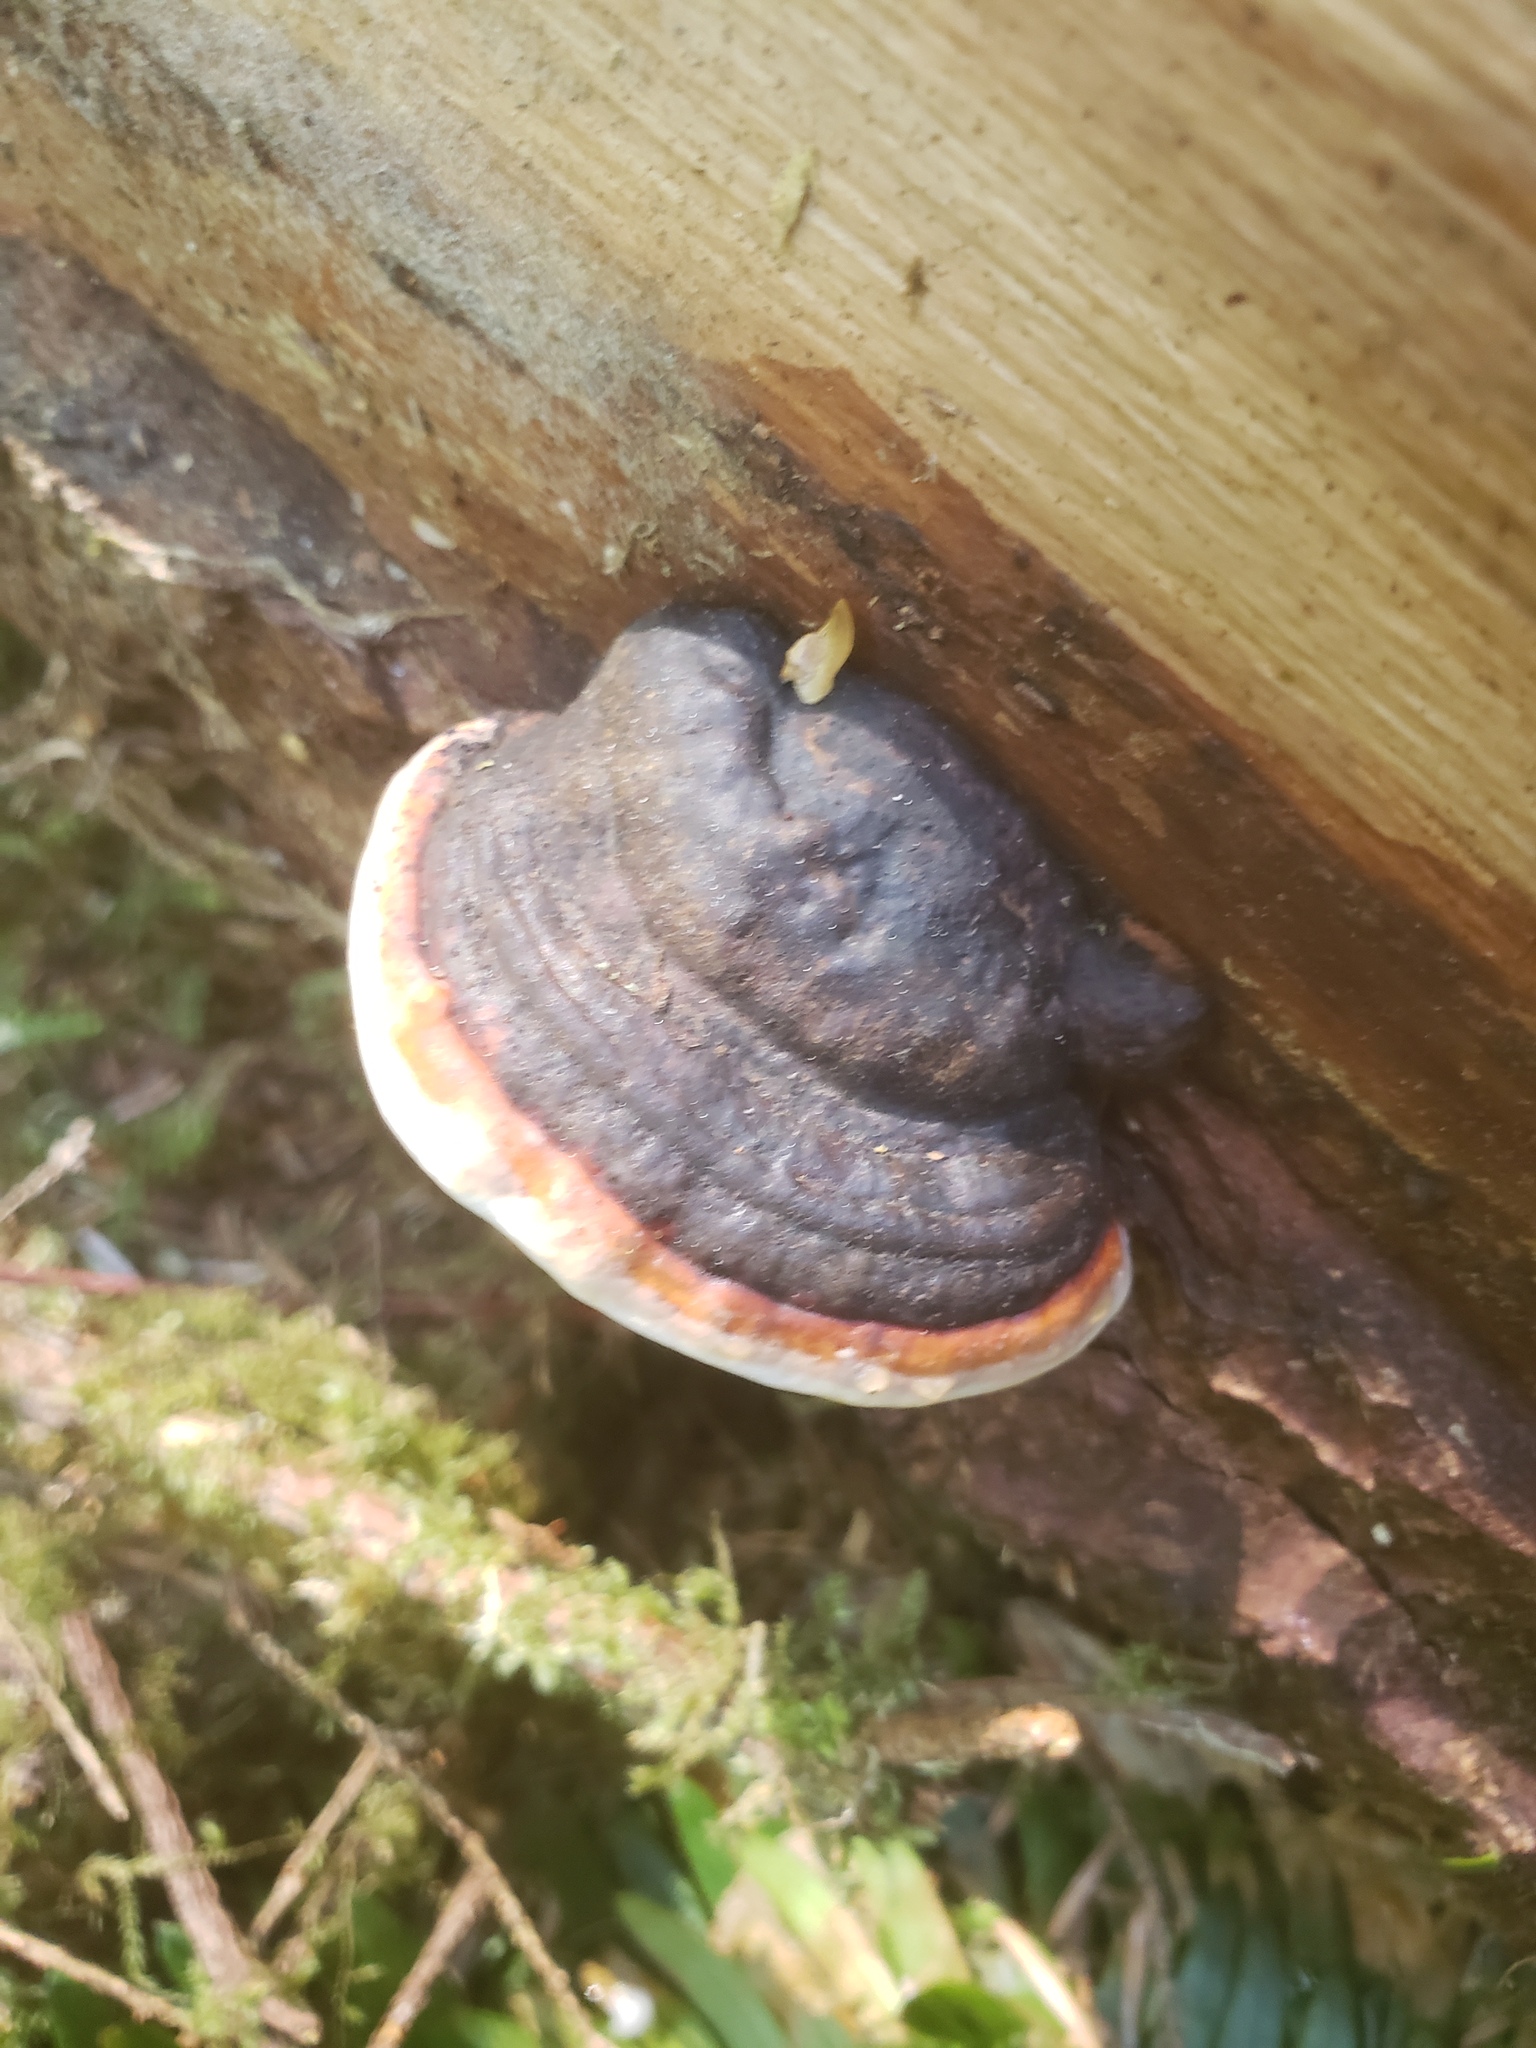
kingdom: Fungi
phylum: Basidiomycota
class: Agaricomycetes
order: Polyporales
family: Fomitopsidaceae
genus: Fomitopsis
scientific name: Fomitopsis mounceae
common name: Northern red belt
